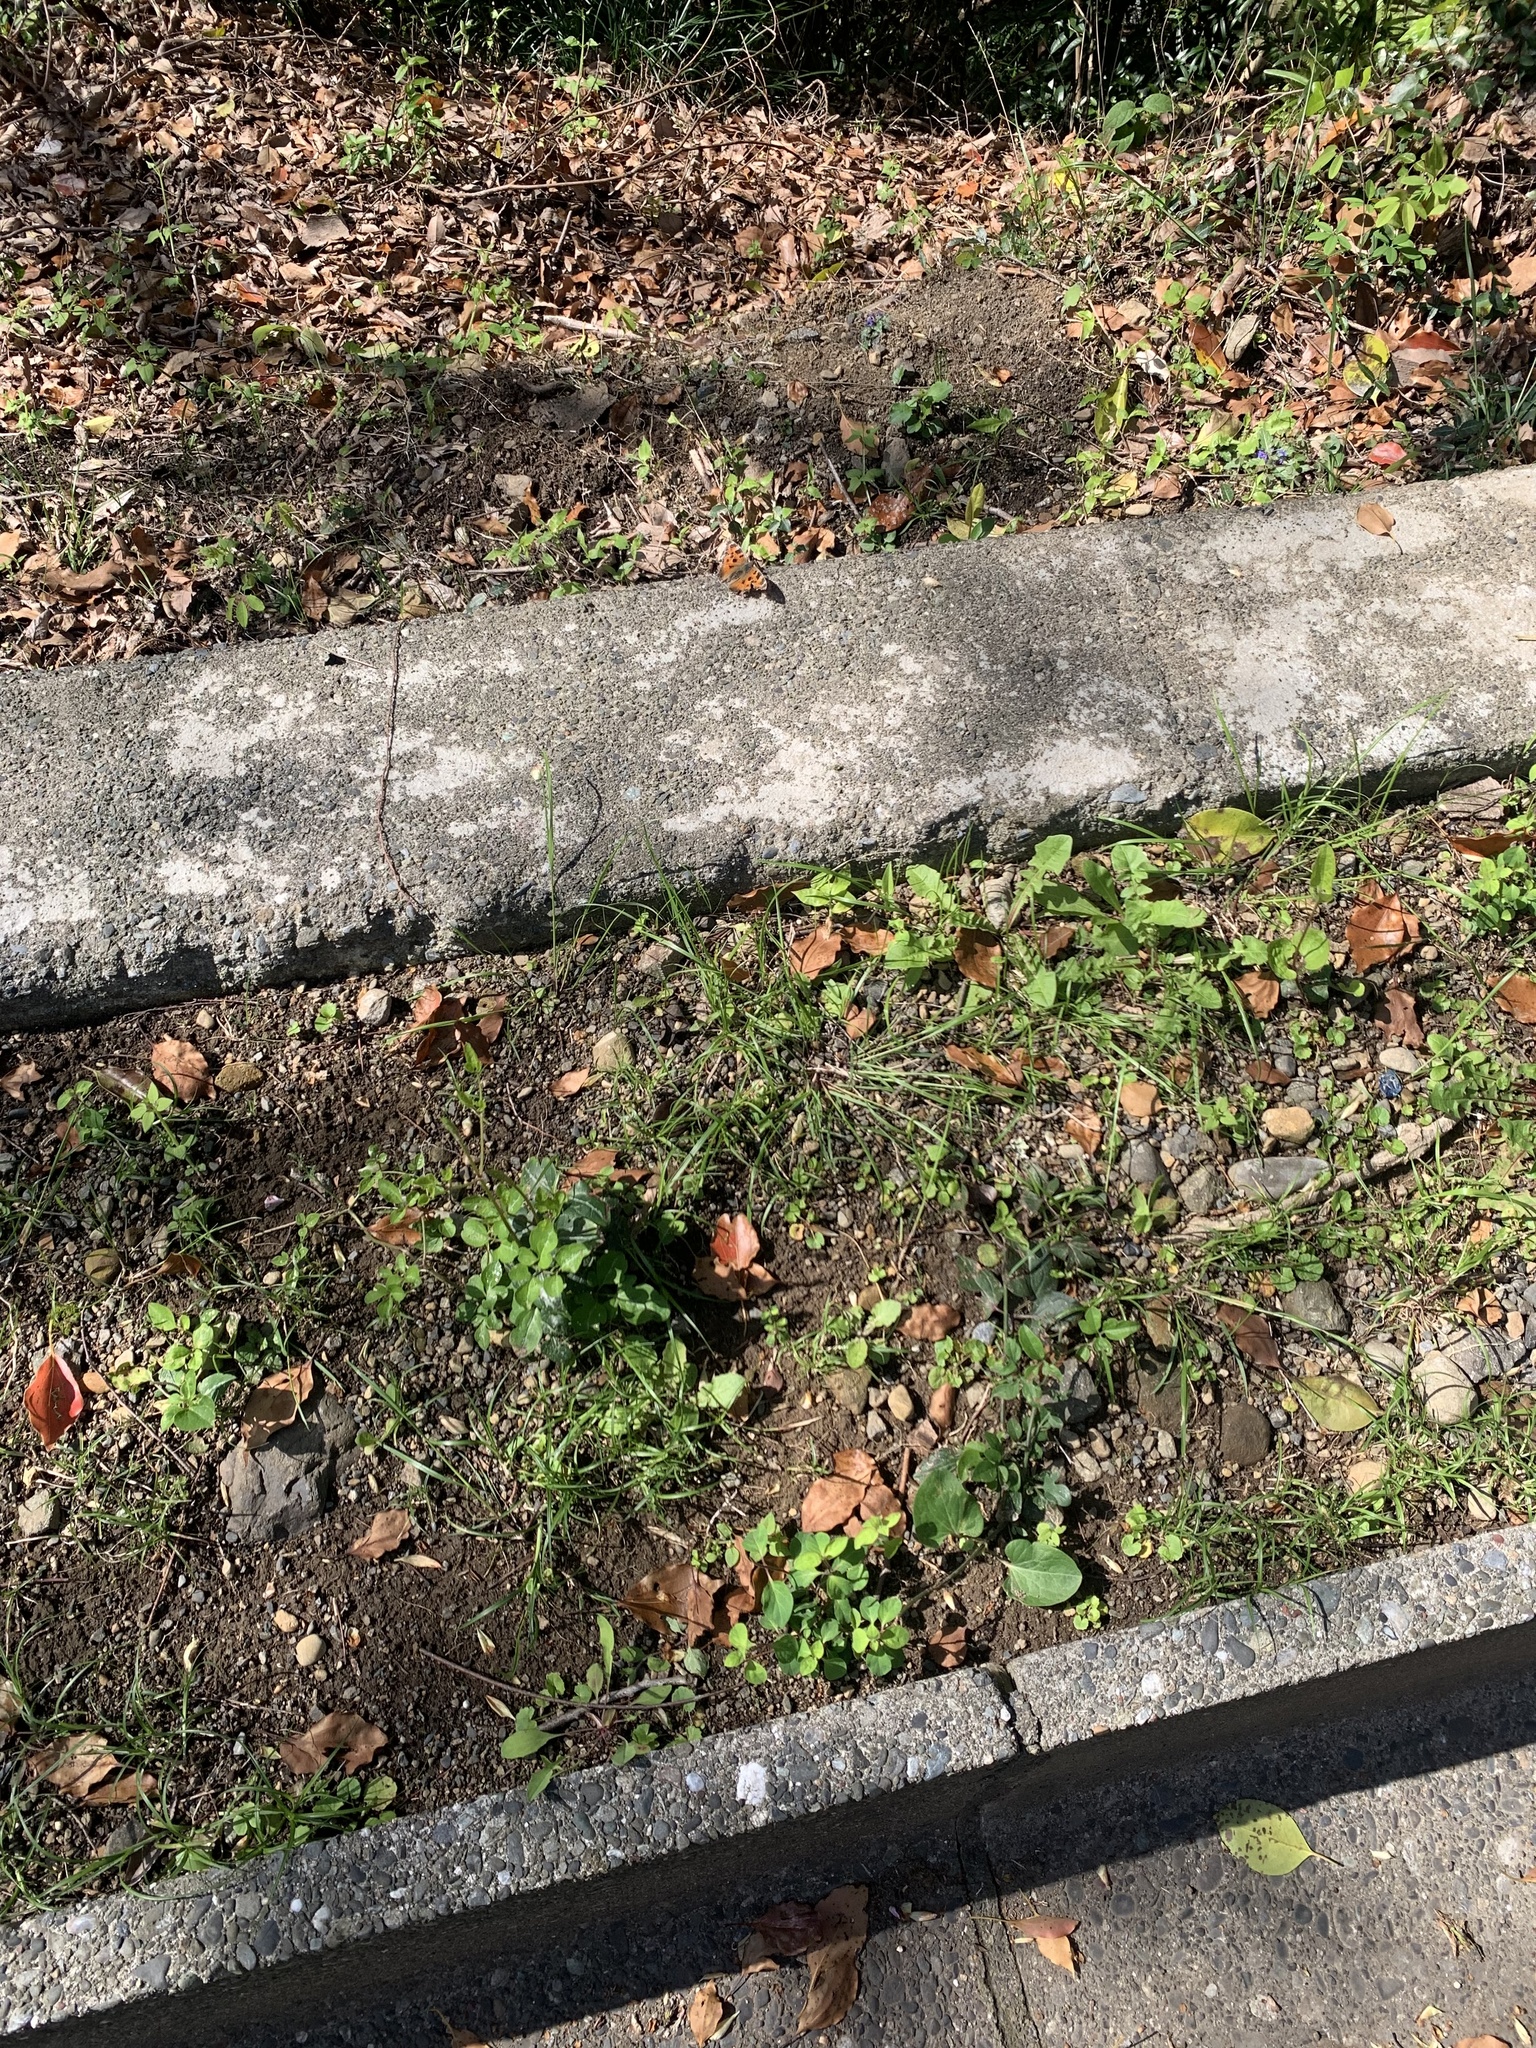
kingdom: Animalia
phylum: Arthropoda
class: Insecta
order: Lepidoptera
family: Nymphalidae
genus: Nymphalis
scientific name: Nymphalis xanthomelas
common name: Scarce tortoiseshell
